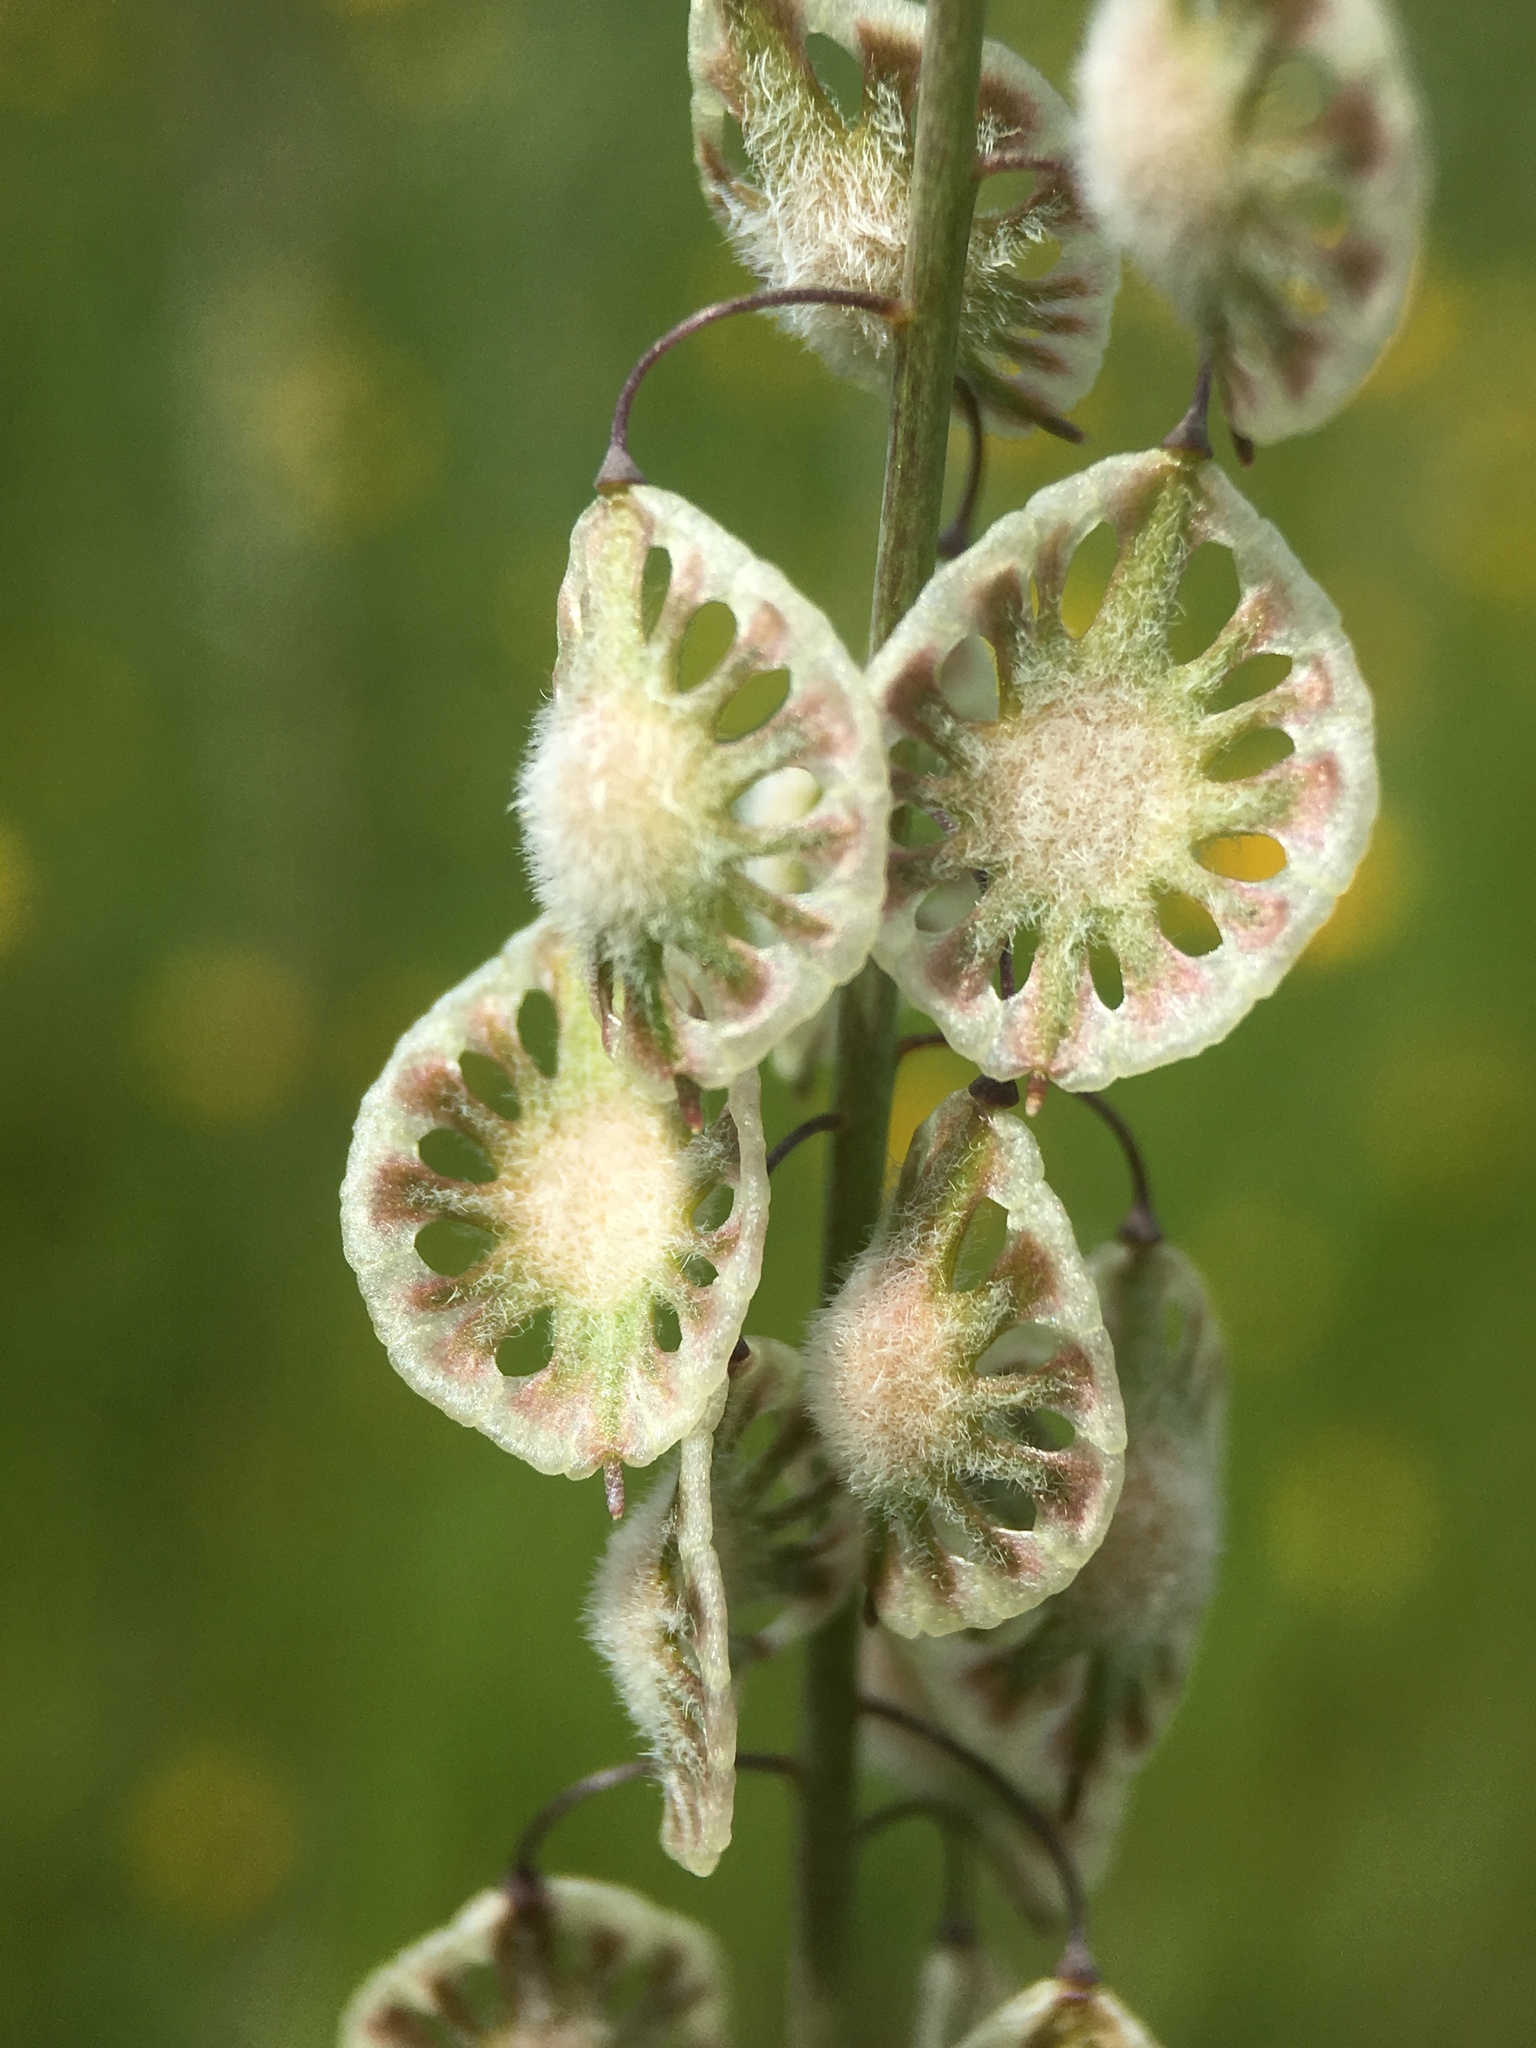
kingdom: Plantae
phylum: Tracheophyta
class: Magnoliopsida
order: Brassicales
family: Brassicaceae
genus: Thysanocarpus
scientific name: Thysanocarpus curvipes
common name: Sand fringepod
